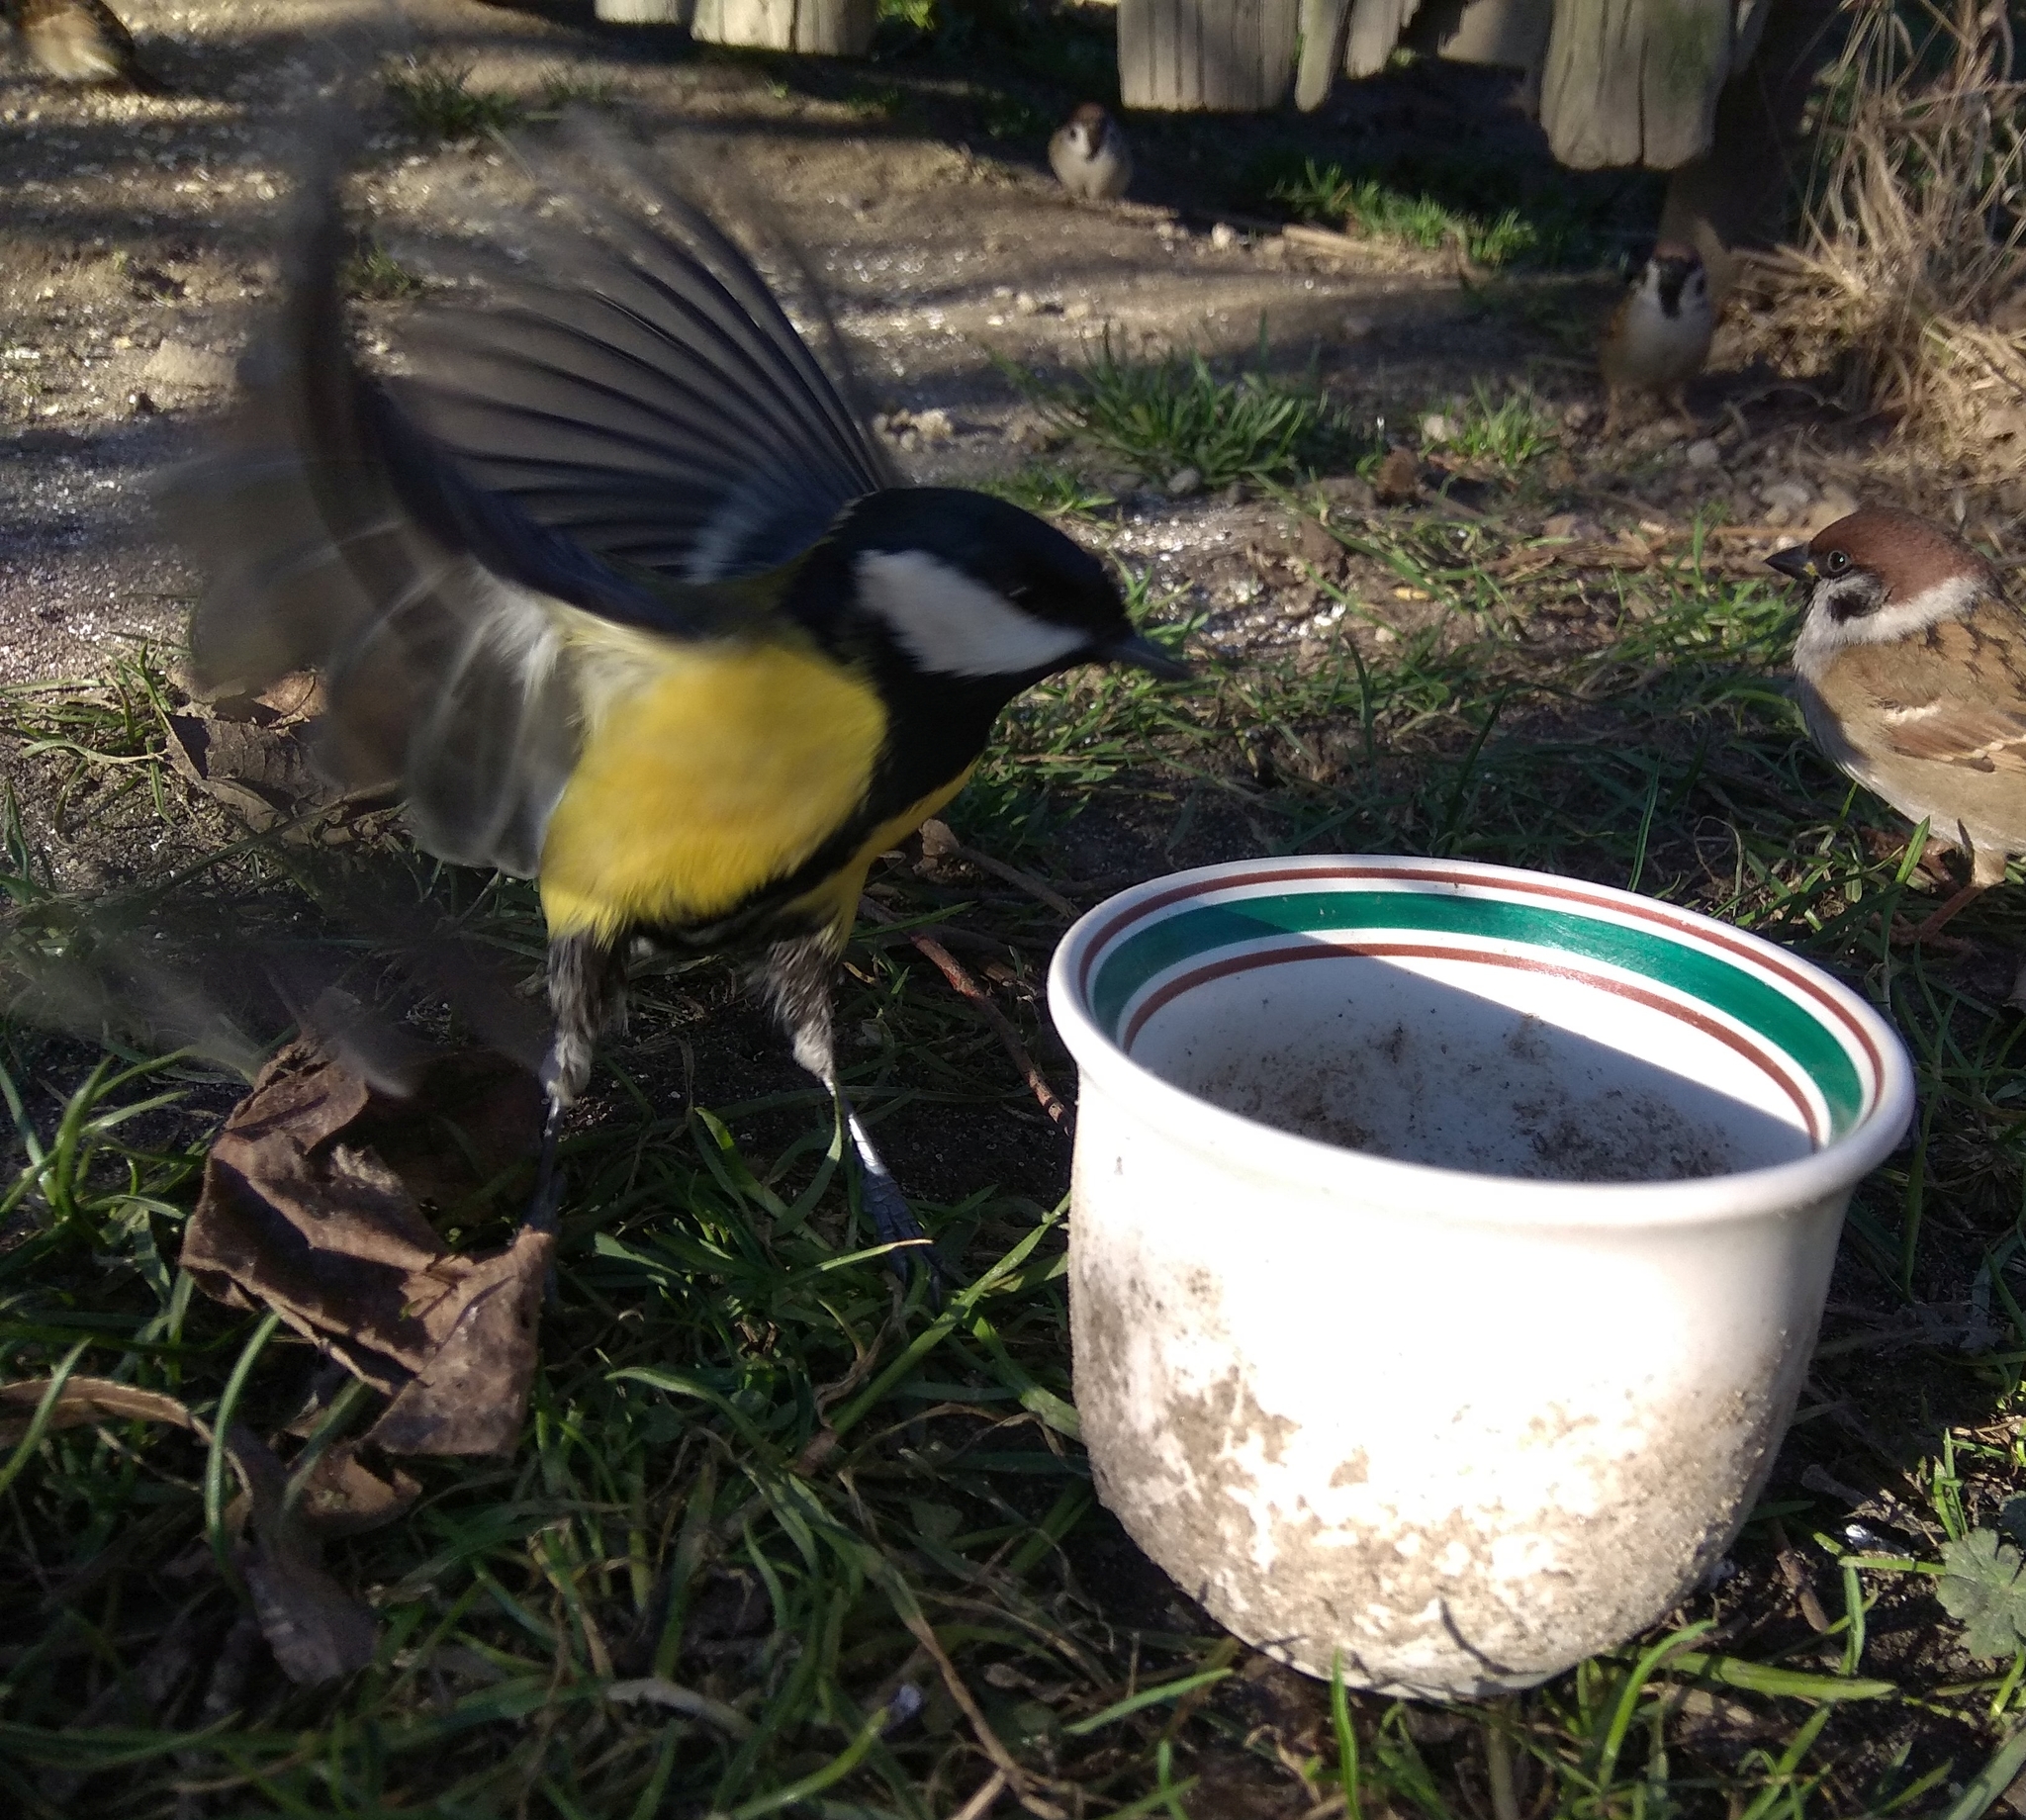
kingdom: Animalia
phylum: Chordata
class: Aves
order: Passeriformes
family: Paridae
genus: Parus
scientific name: Parus major
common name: Great tit
